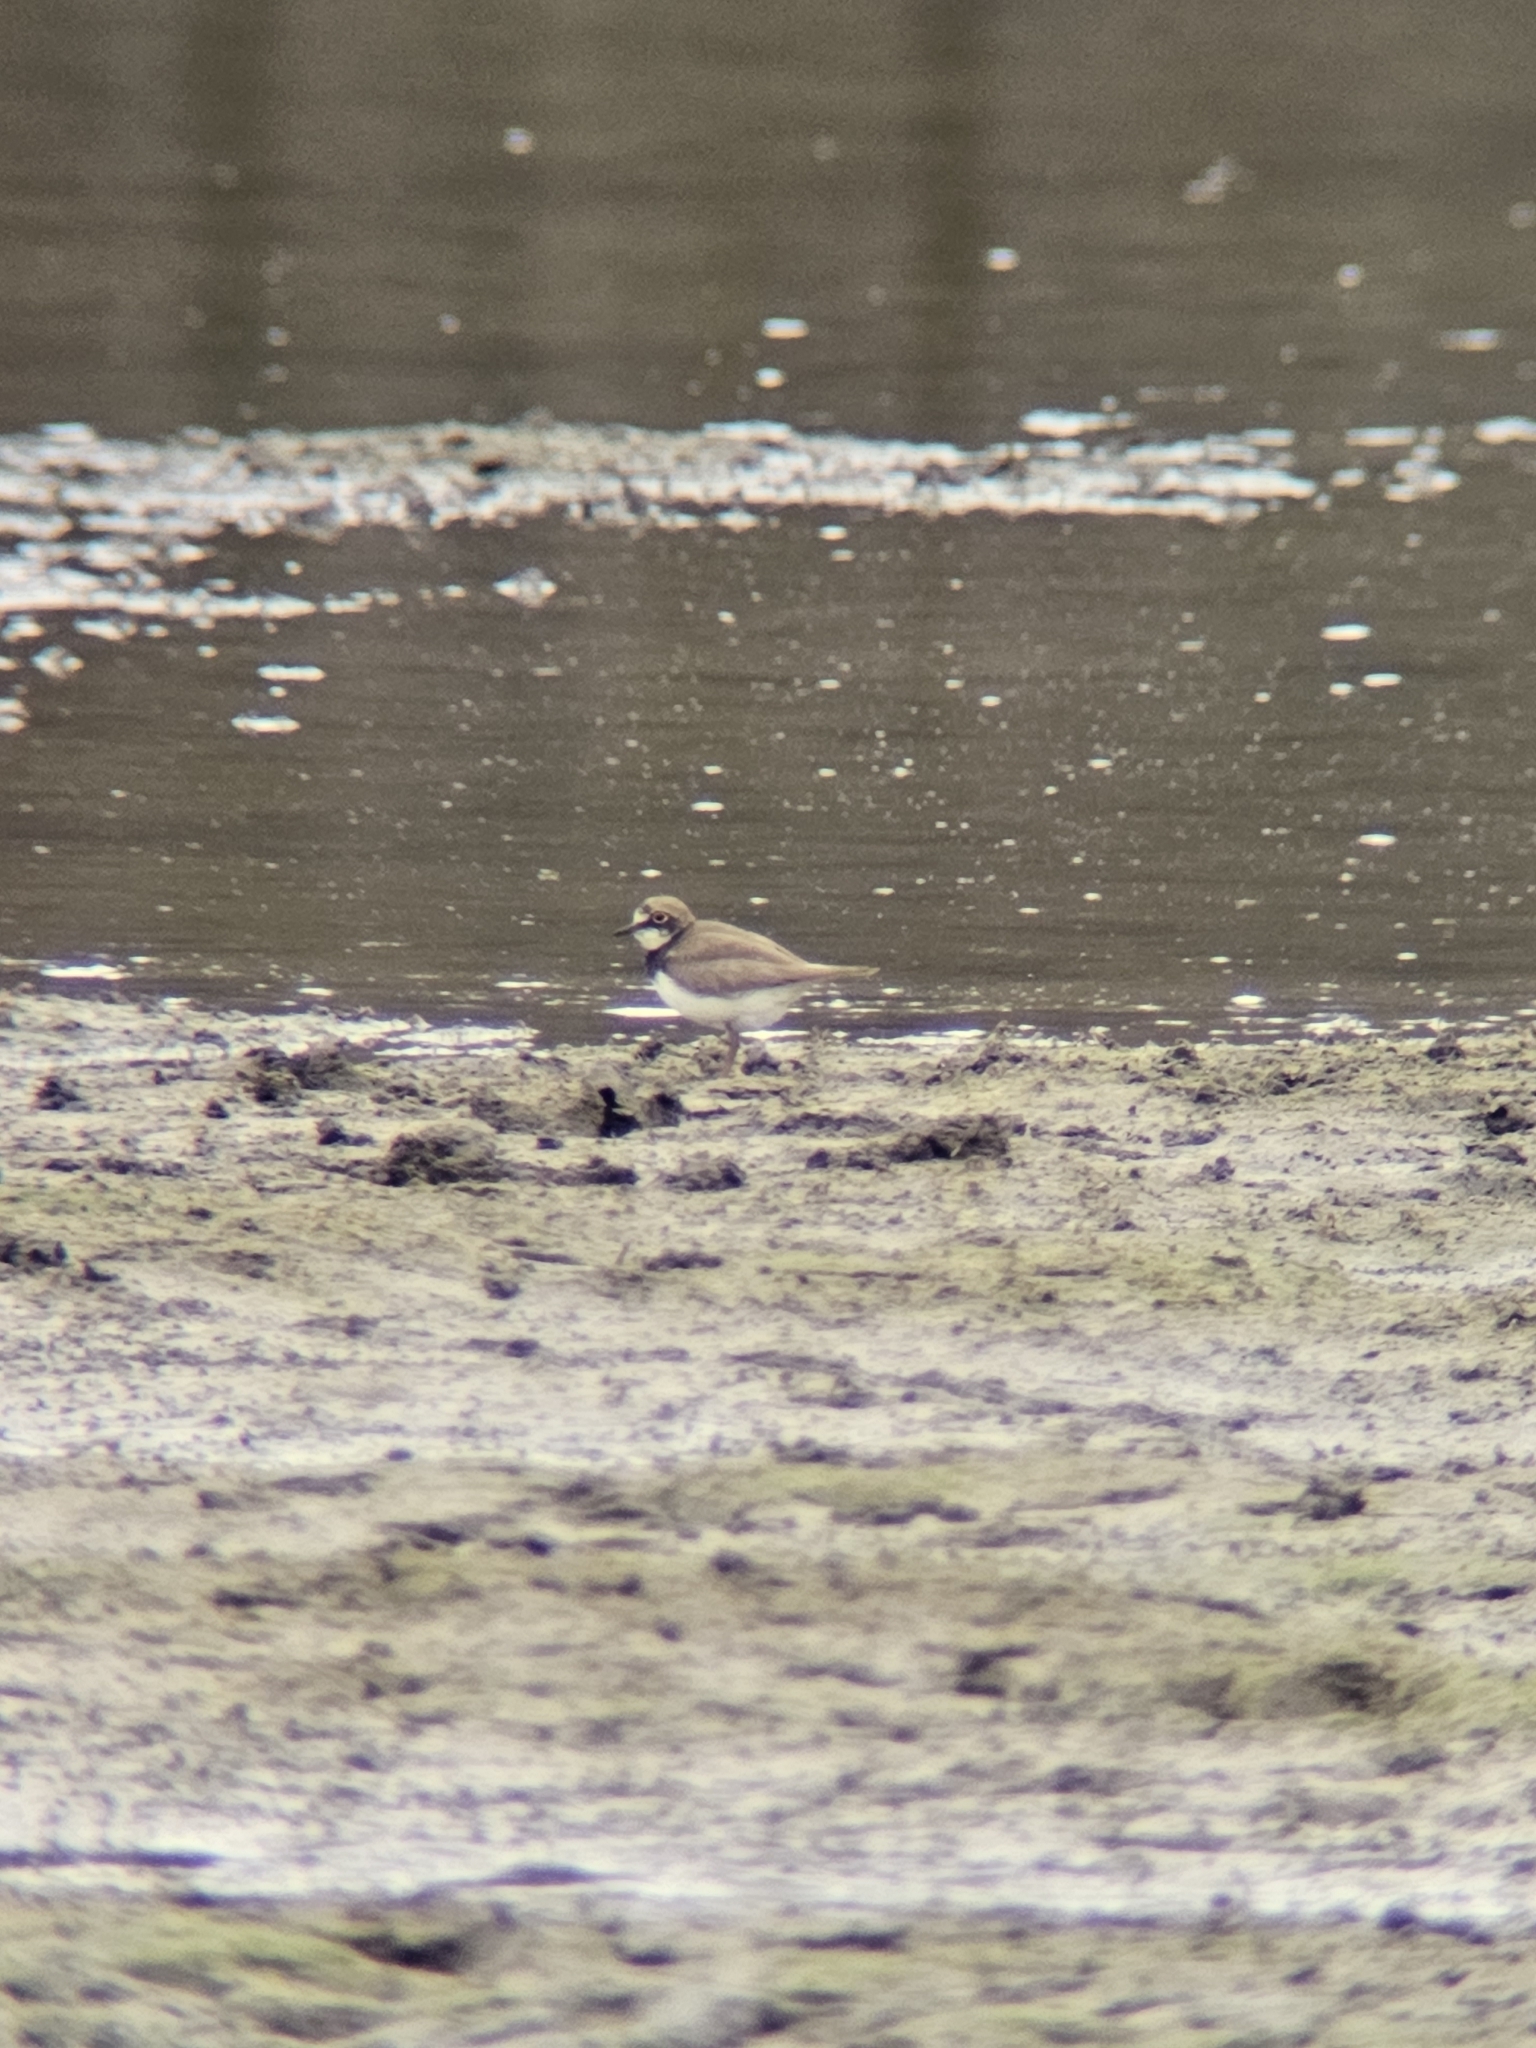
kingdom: Animalia
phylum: Chordata
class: Aves
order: Charadriiformes
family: Charadriidae
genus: Charadrius
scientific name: Charadrius dubius
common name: Little ringed plover
